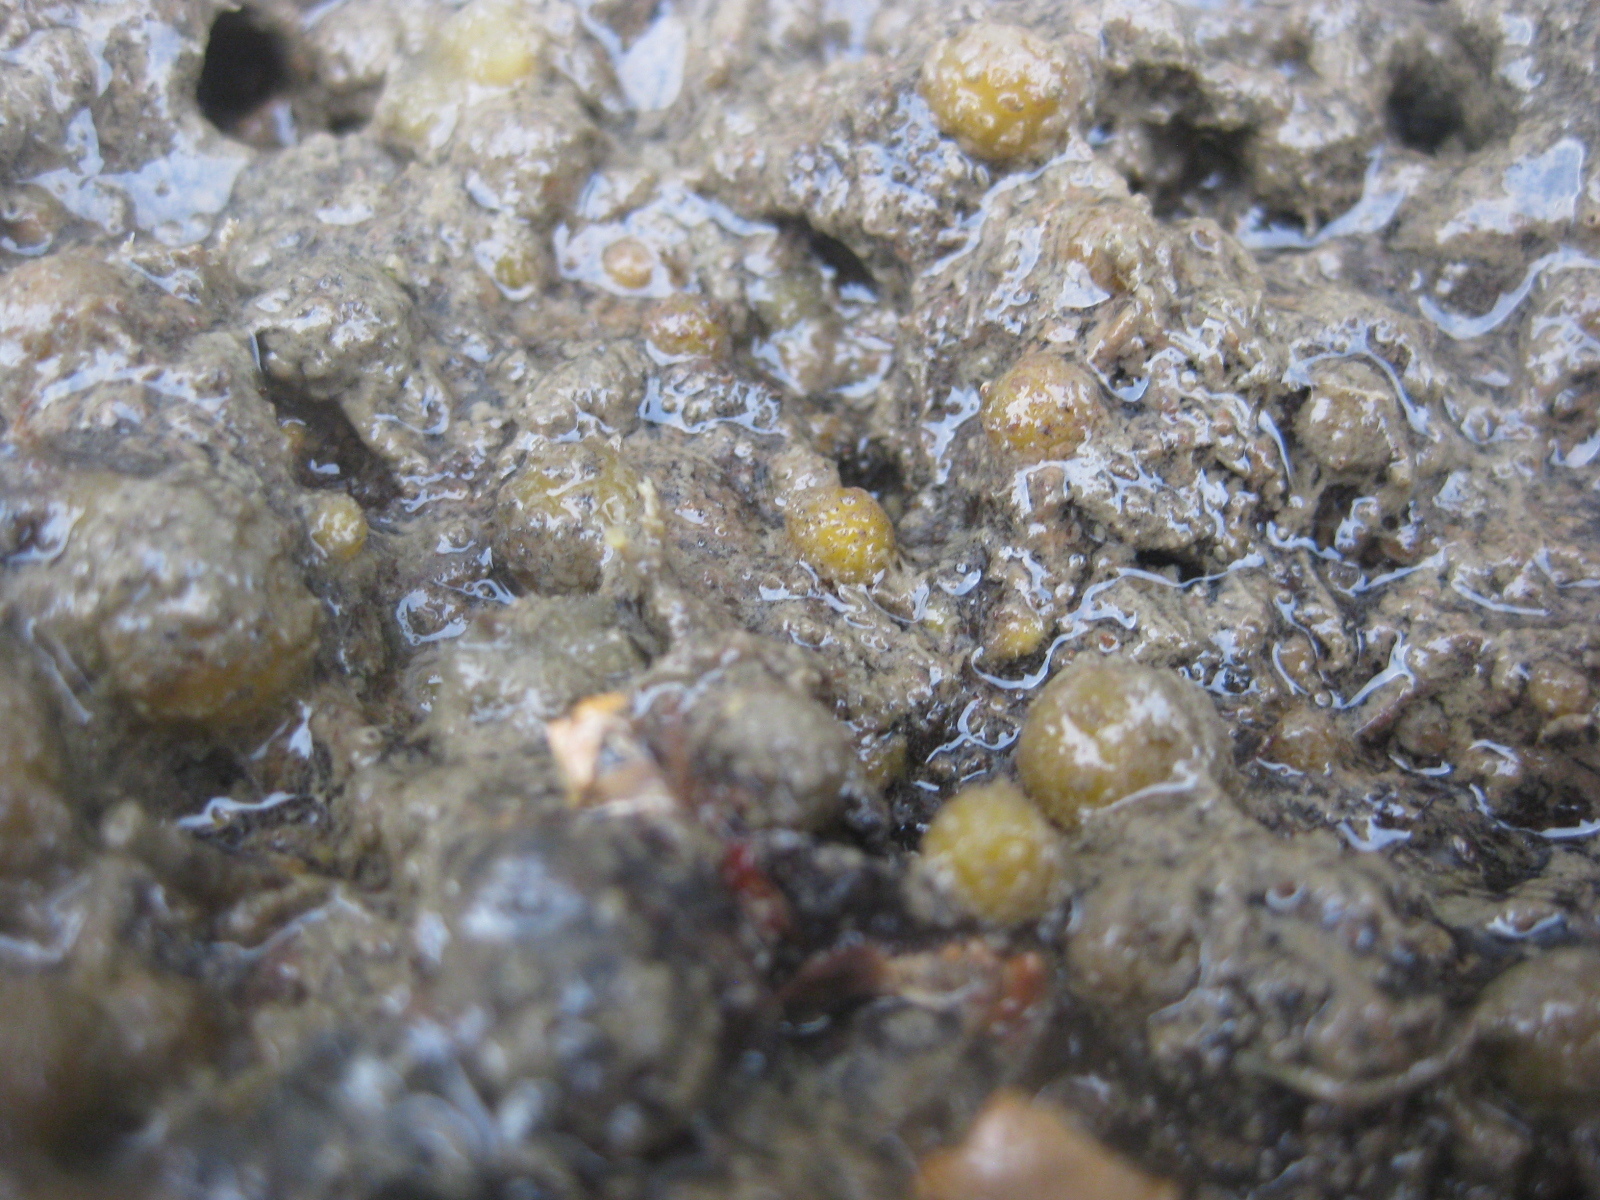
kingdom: Animalia
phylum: Porifera
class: Demospongiae
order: Tethyida
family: Tethyidae
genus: Tethya
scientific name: Tethya stolonifera
